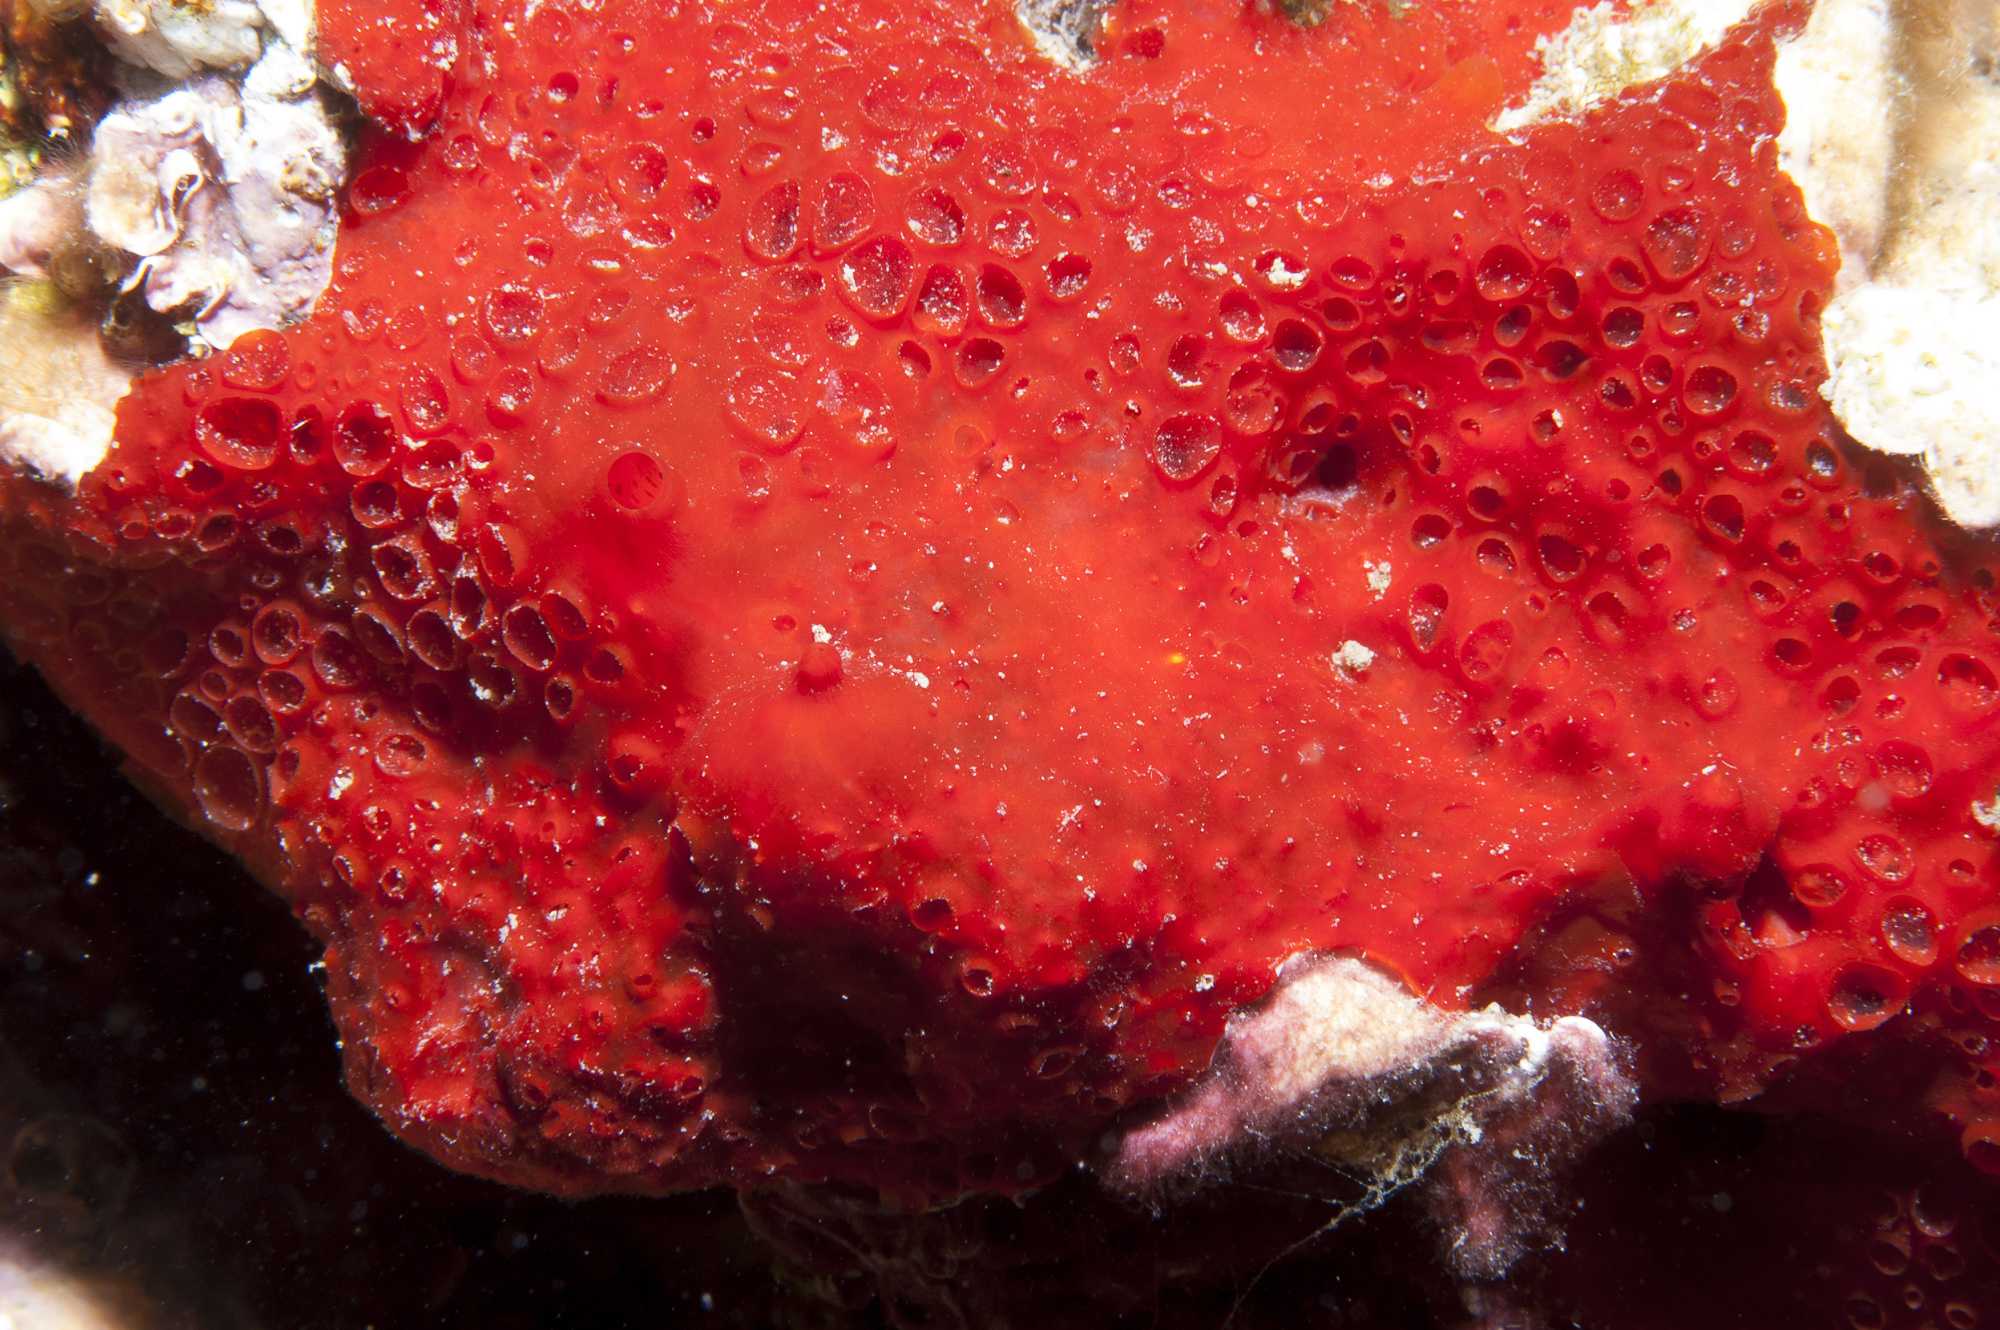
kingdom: Animalia
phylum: Porifera
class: Demospongiae
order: Poecilosclerida
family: Hymedesmiidae
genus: Phorbas
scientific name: Phorbas topsenti
